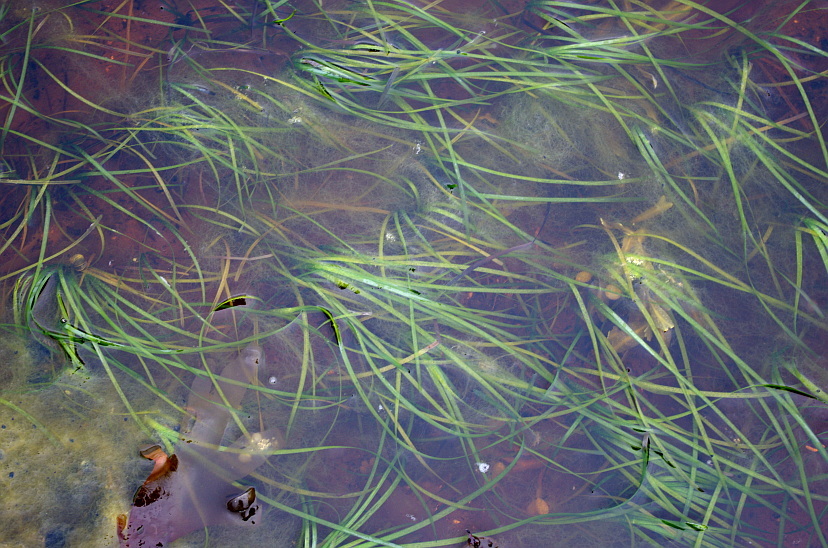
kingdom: Plantae
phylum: Tracheophyta
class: Liliopsida
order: Alismatales
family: Zosteraceae
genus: Zostera
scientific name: Zostera marina
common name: Eelgrass
